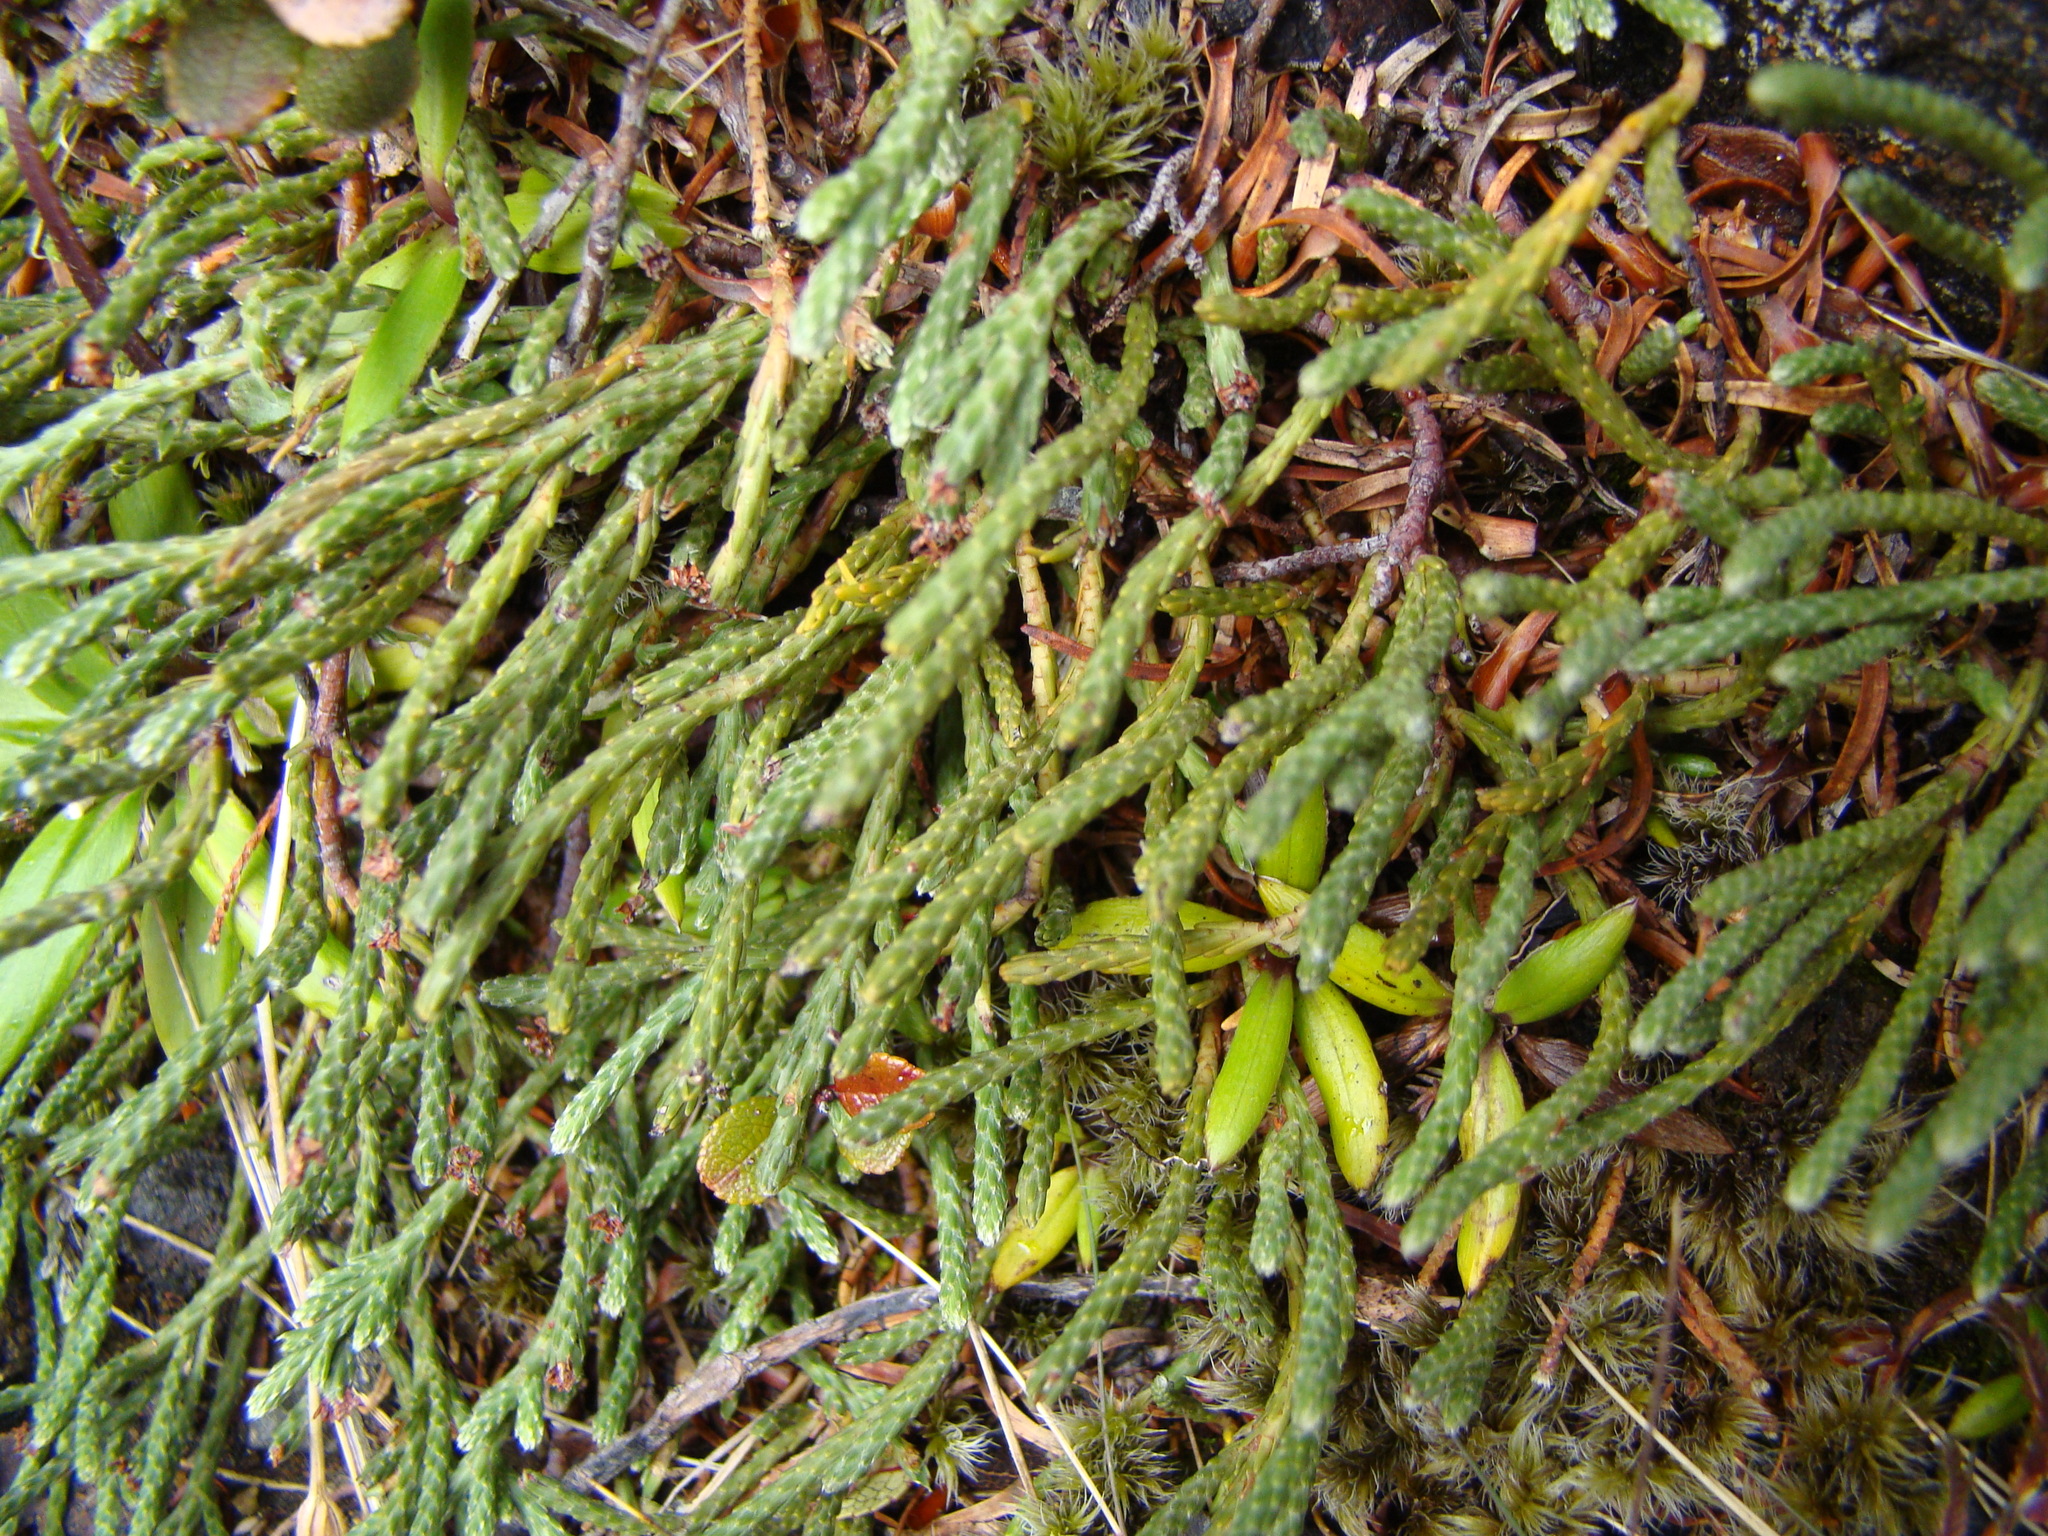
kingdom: Plantae
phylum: Tracheophyta
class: Magnoliopsida
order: Malvales
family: Thymelaeaceae
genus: Kelleria
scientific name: Kelleria dieffenbachii
